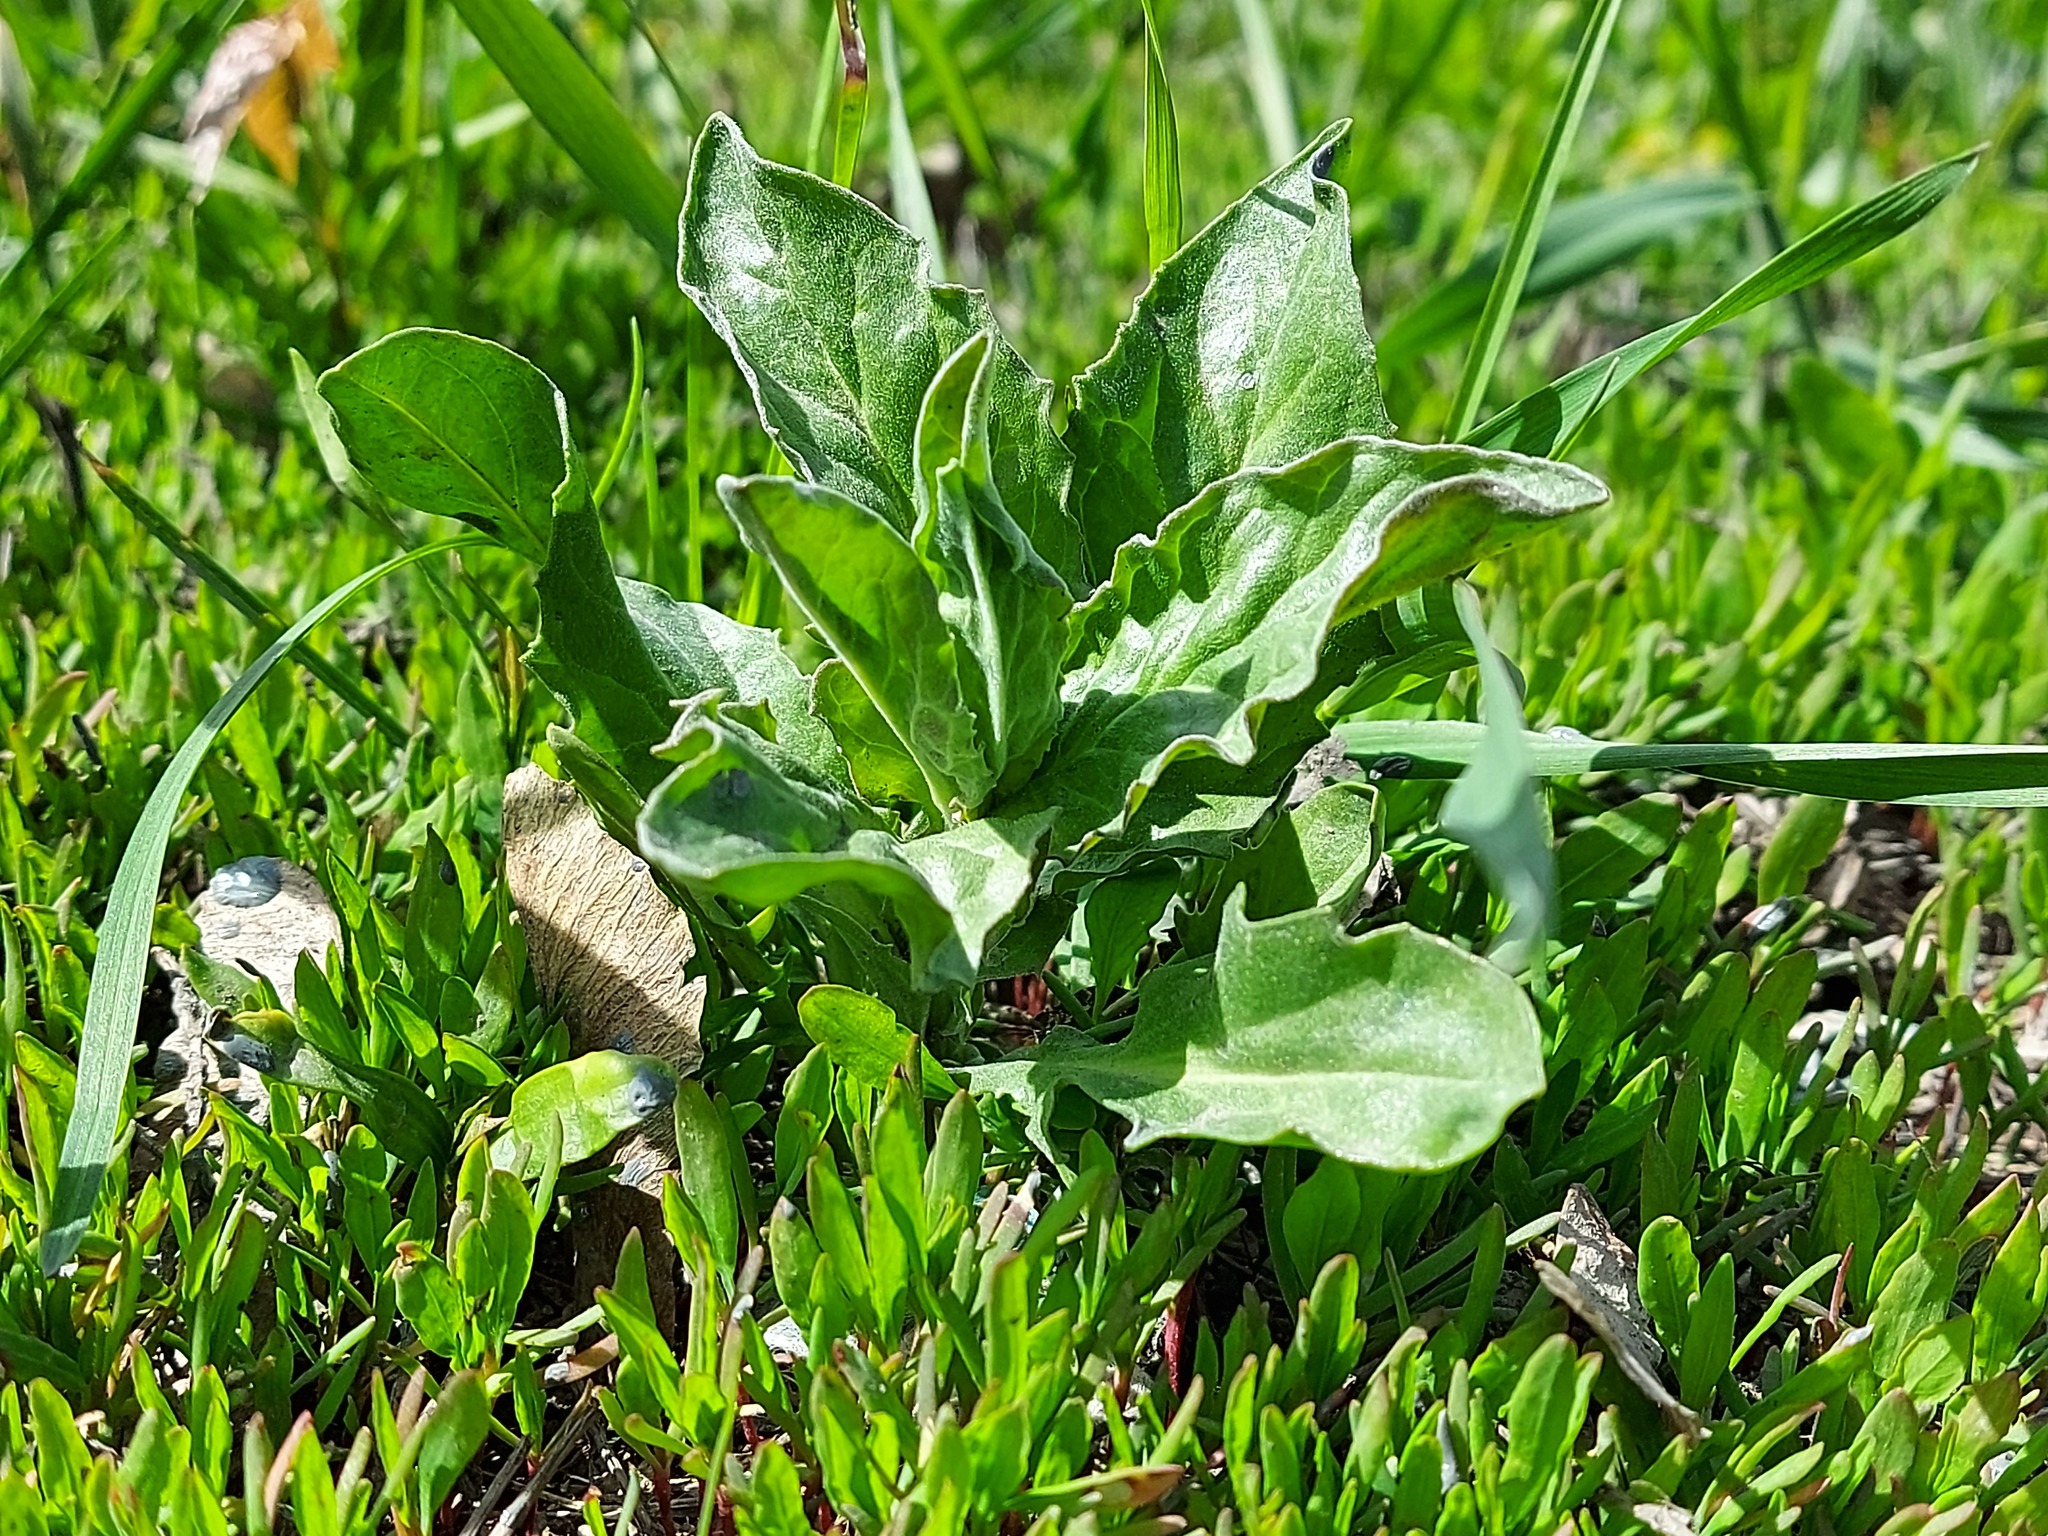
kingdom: Plantae
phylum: Tracheophyta
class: Magnoliopsida
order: Brassicales
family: Brassicaceae
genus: Lepidium
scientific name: Lepidium draba
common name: Hoary cress
